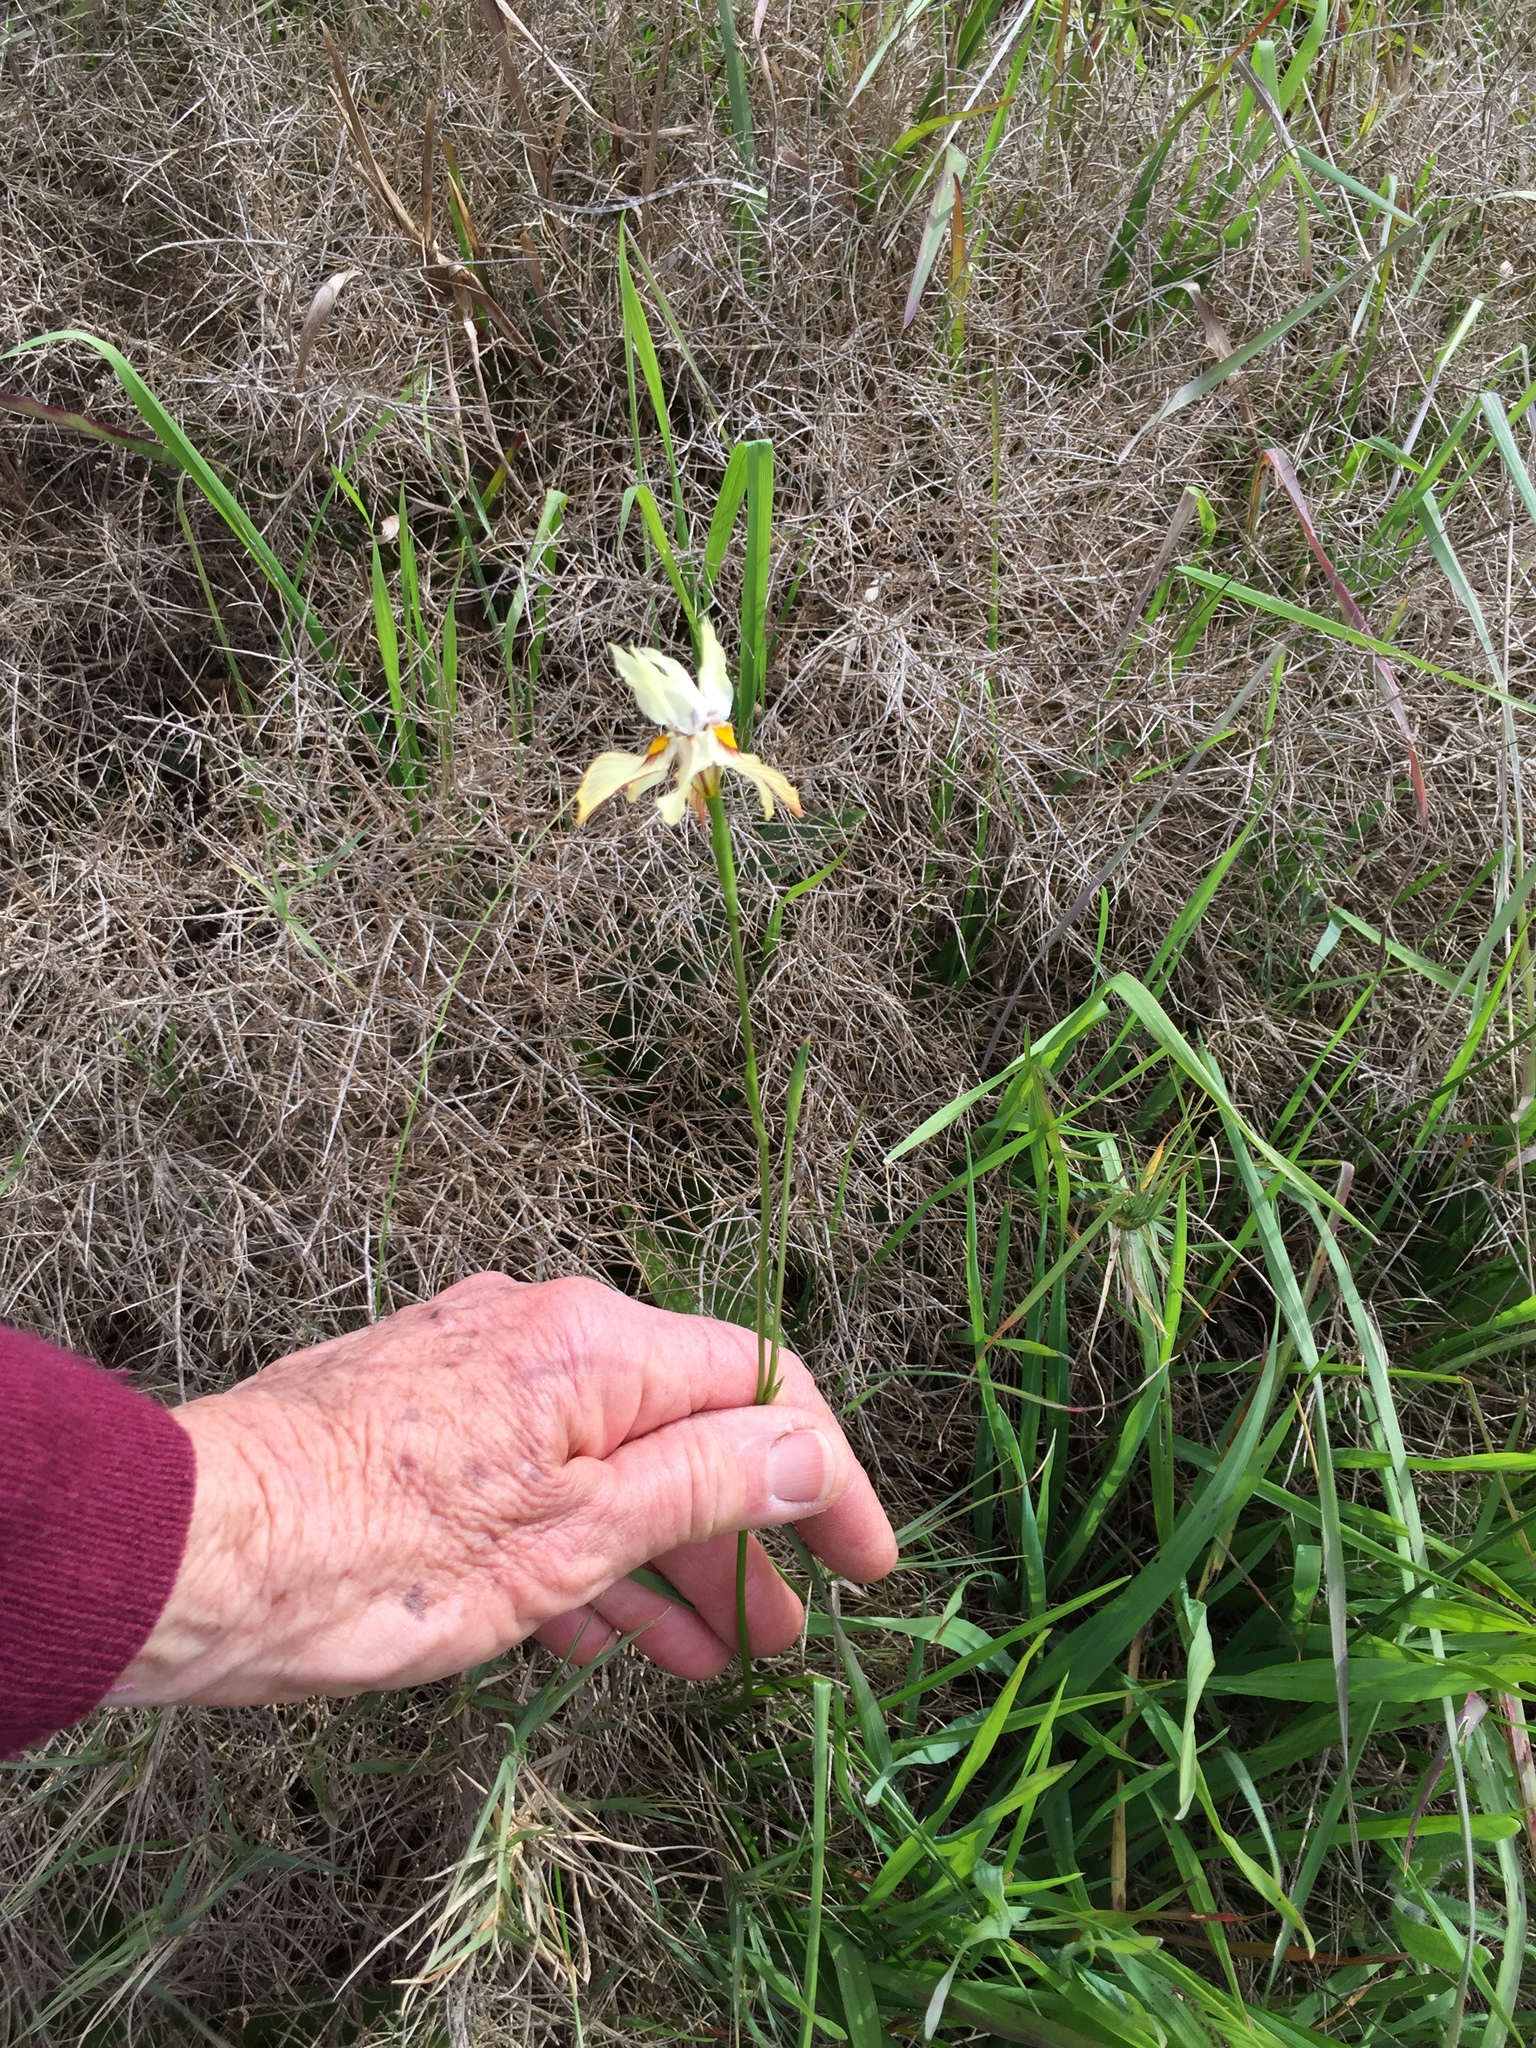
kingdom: Plantae
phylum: Tracheophyta
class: Liliopsida
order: Asparagales
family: Iridaceae
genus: Moraea
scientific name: Moraea gawleri
